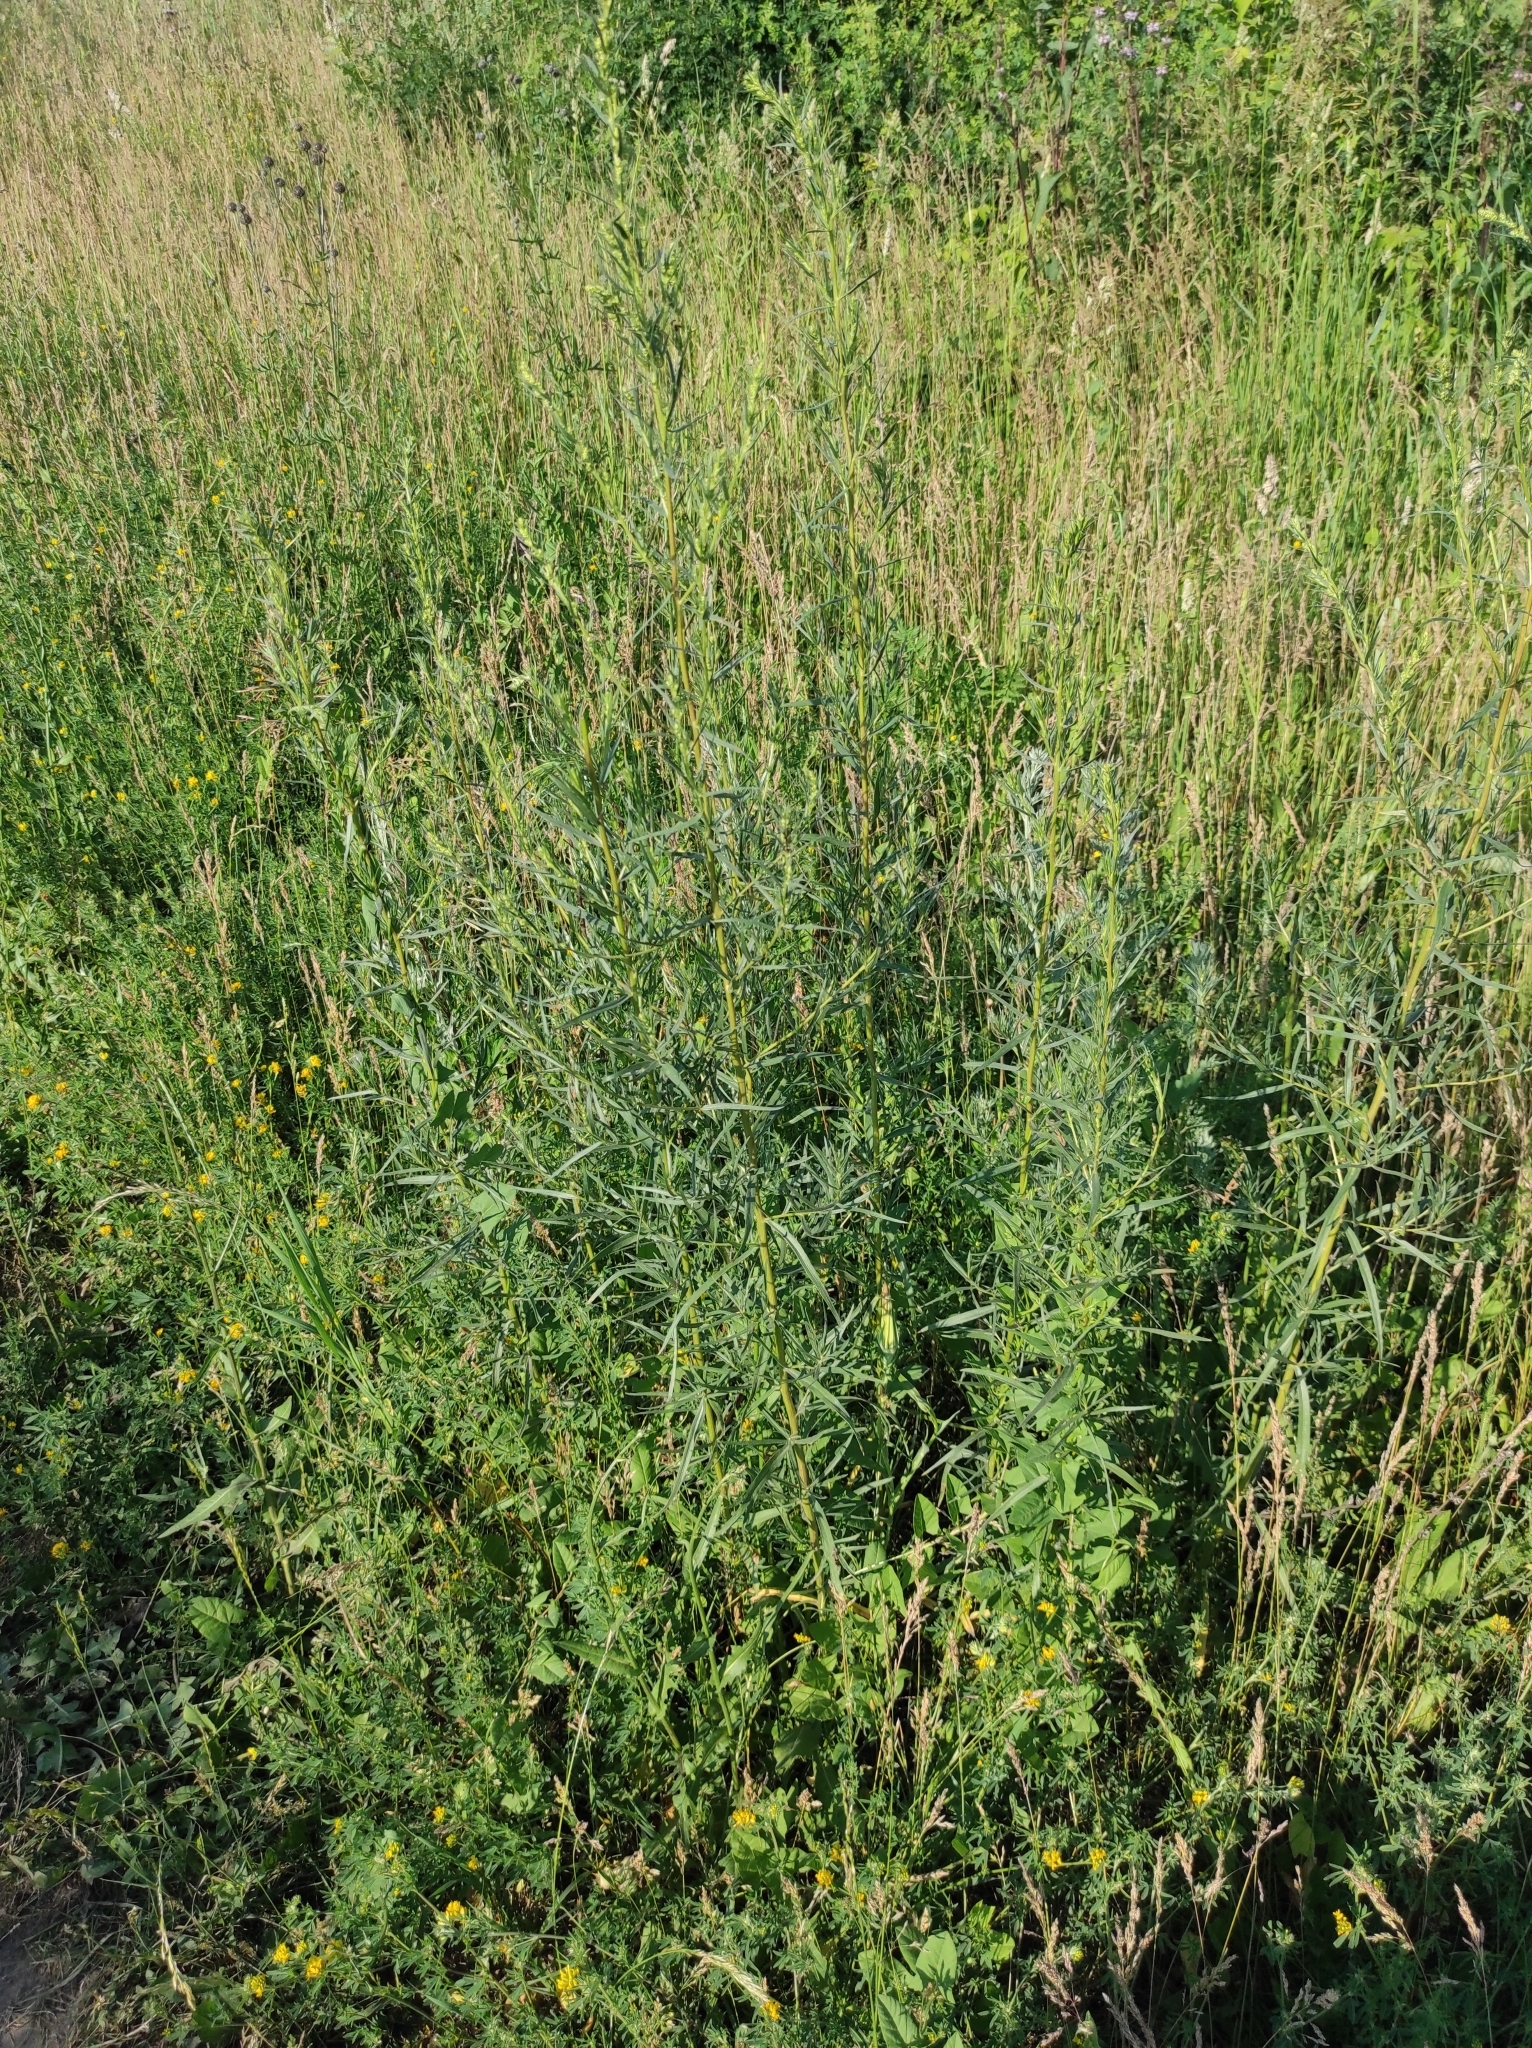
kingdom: Plantae
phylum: Tracheophyta
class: Magnoliopsida
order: Asterales
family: Asteraceae
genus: Artemisia
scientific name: Artemisia dracunculus
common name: Tarragon
